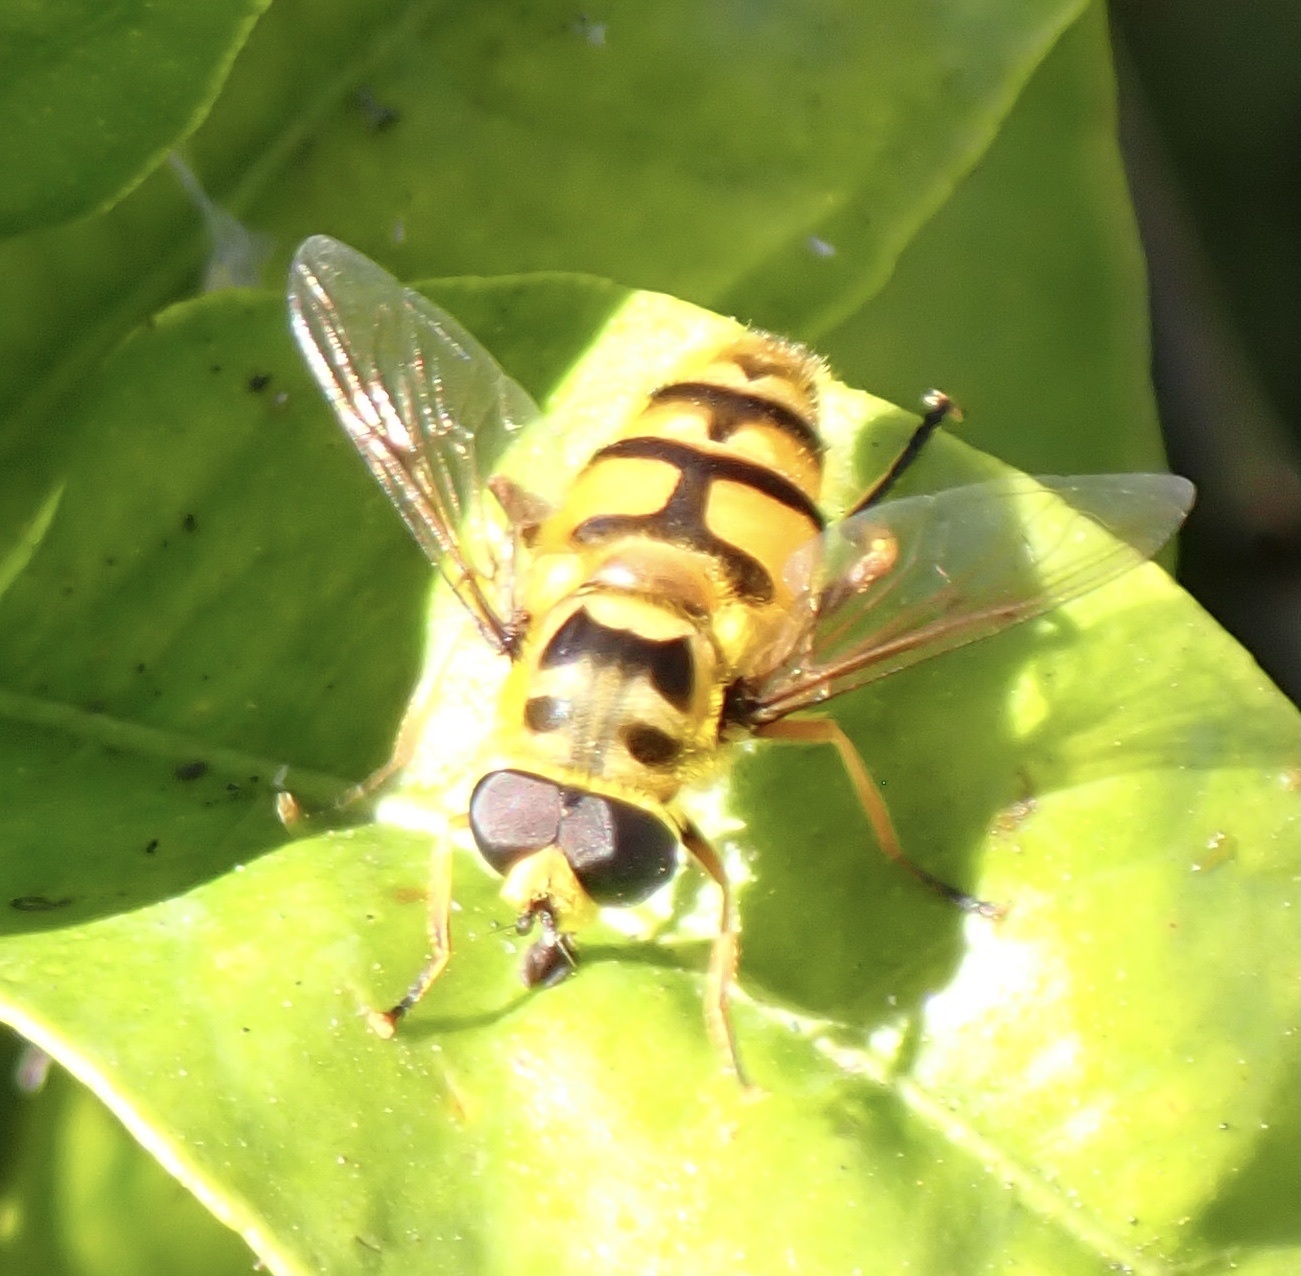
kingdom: Animalia
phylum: Arthropoda
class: Insecta
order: Diptera
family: Syrphidae
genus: Myathropa
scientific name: Myathropa florea
